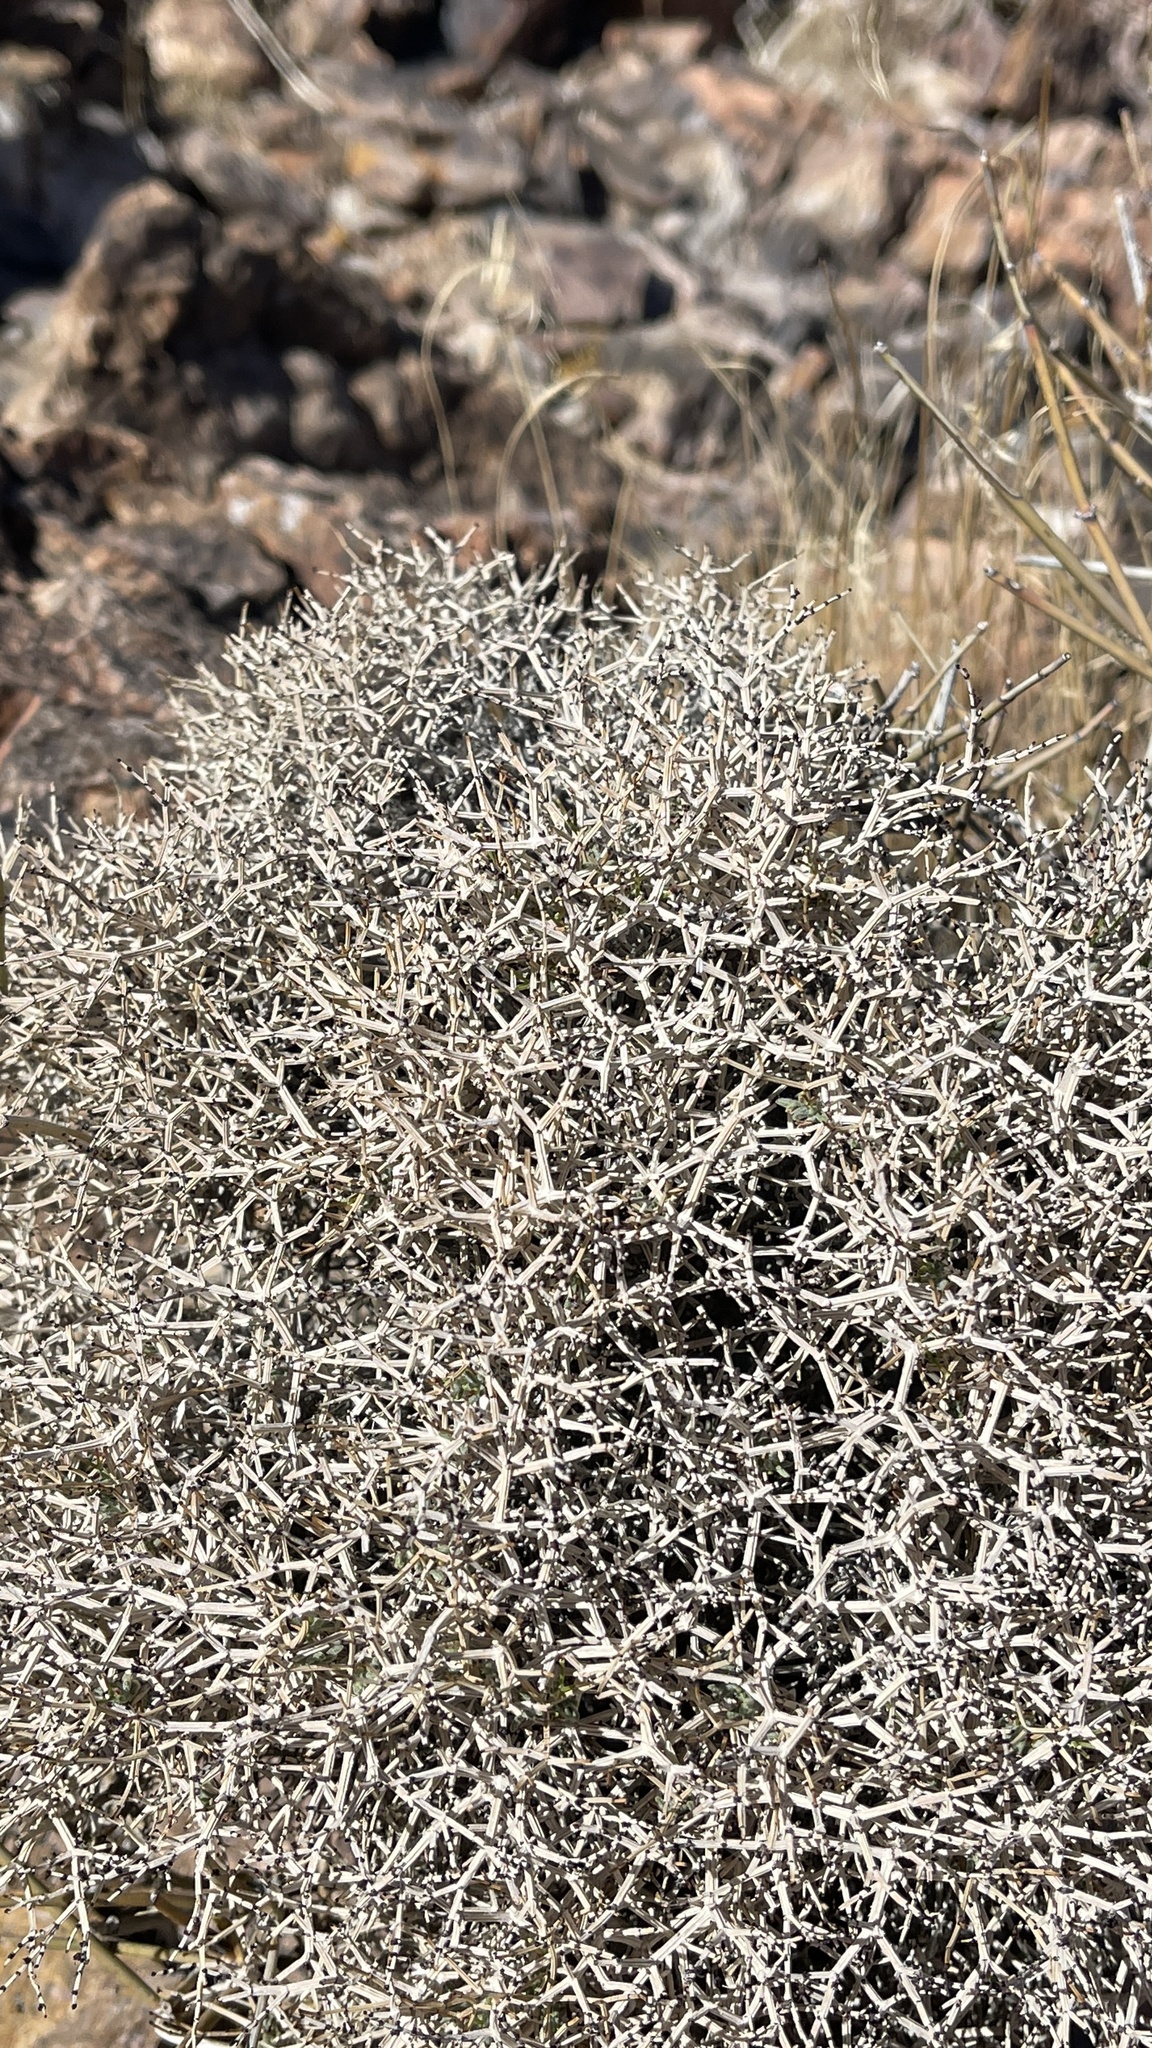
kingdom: Plantae
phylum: Tracheophyta
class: Magnoliopsida
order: Caryophyllales
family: Polygonaceae
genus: Eriogonum
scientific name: Eriogonum heermannii
